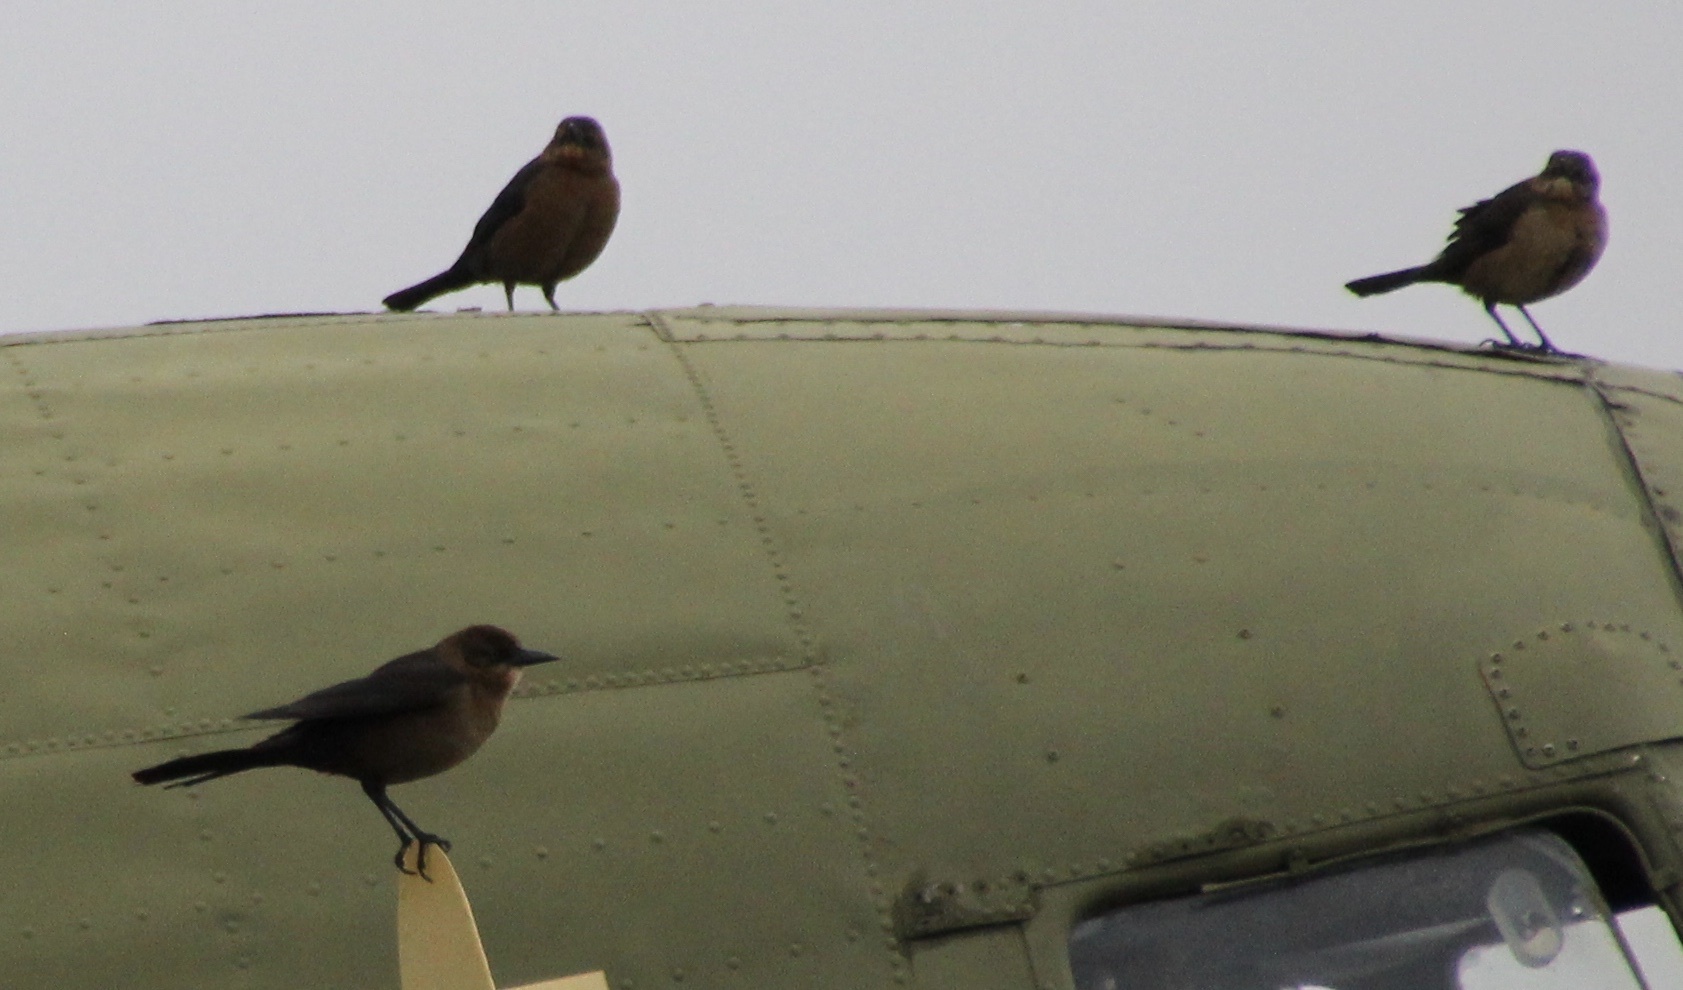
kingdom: Animalia
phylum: Chordata
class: Aves
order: Passeriformes
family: Icteridae
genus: Quiscalus
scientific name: Quiscalus major
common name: Boat-tailed grackle
